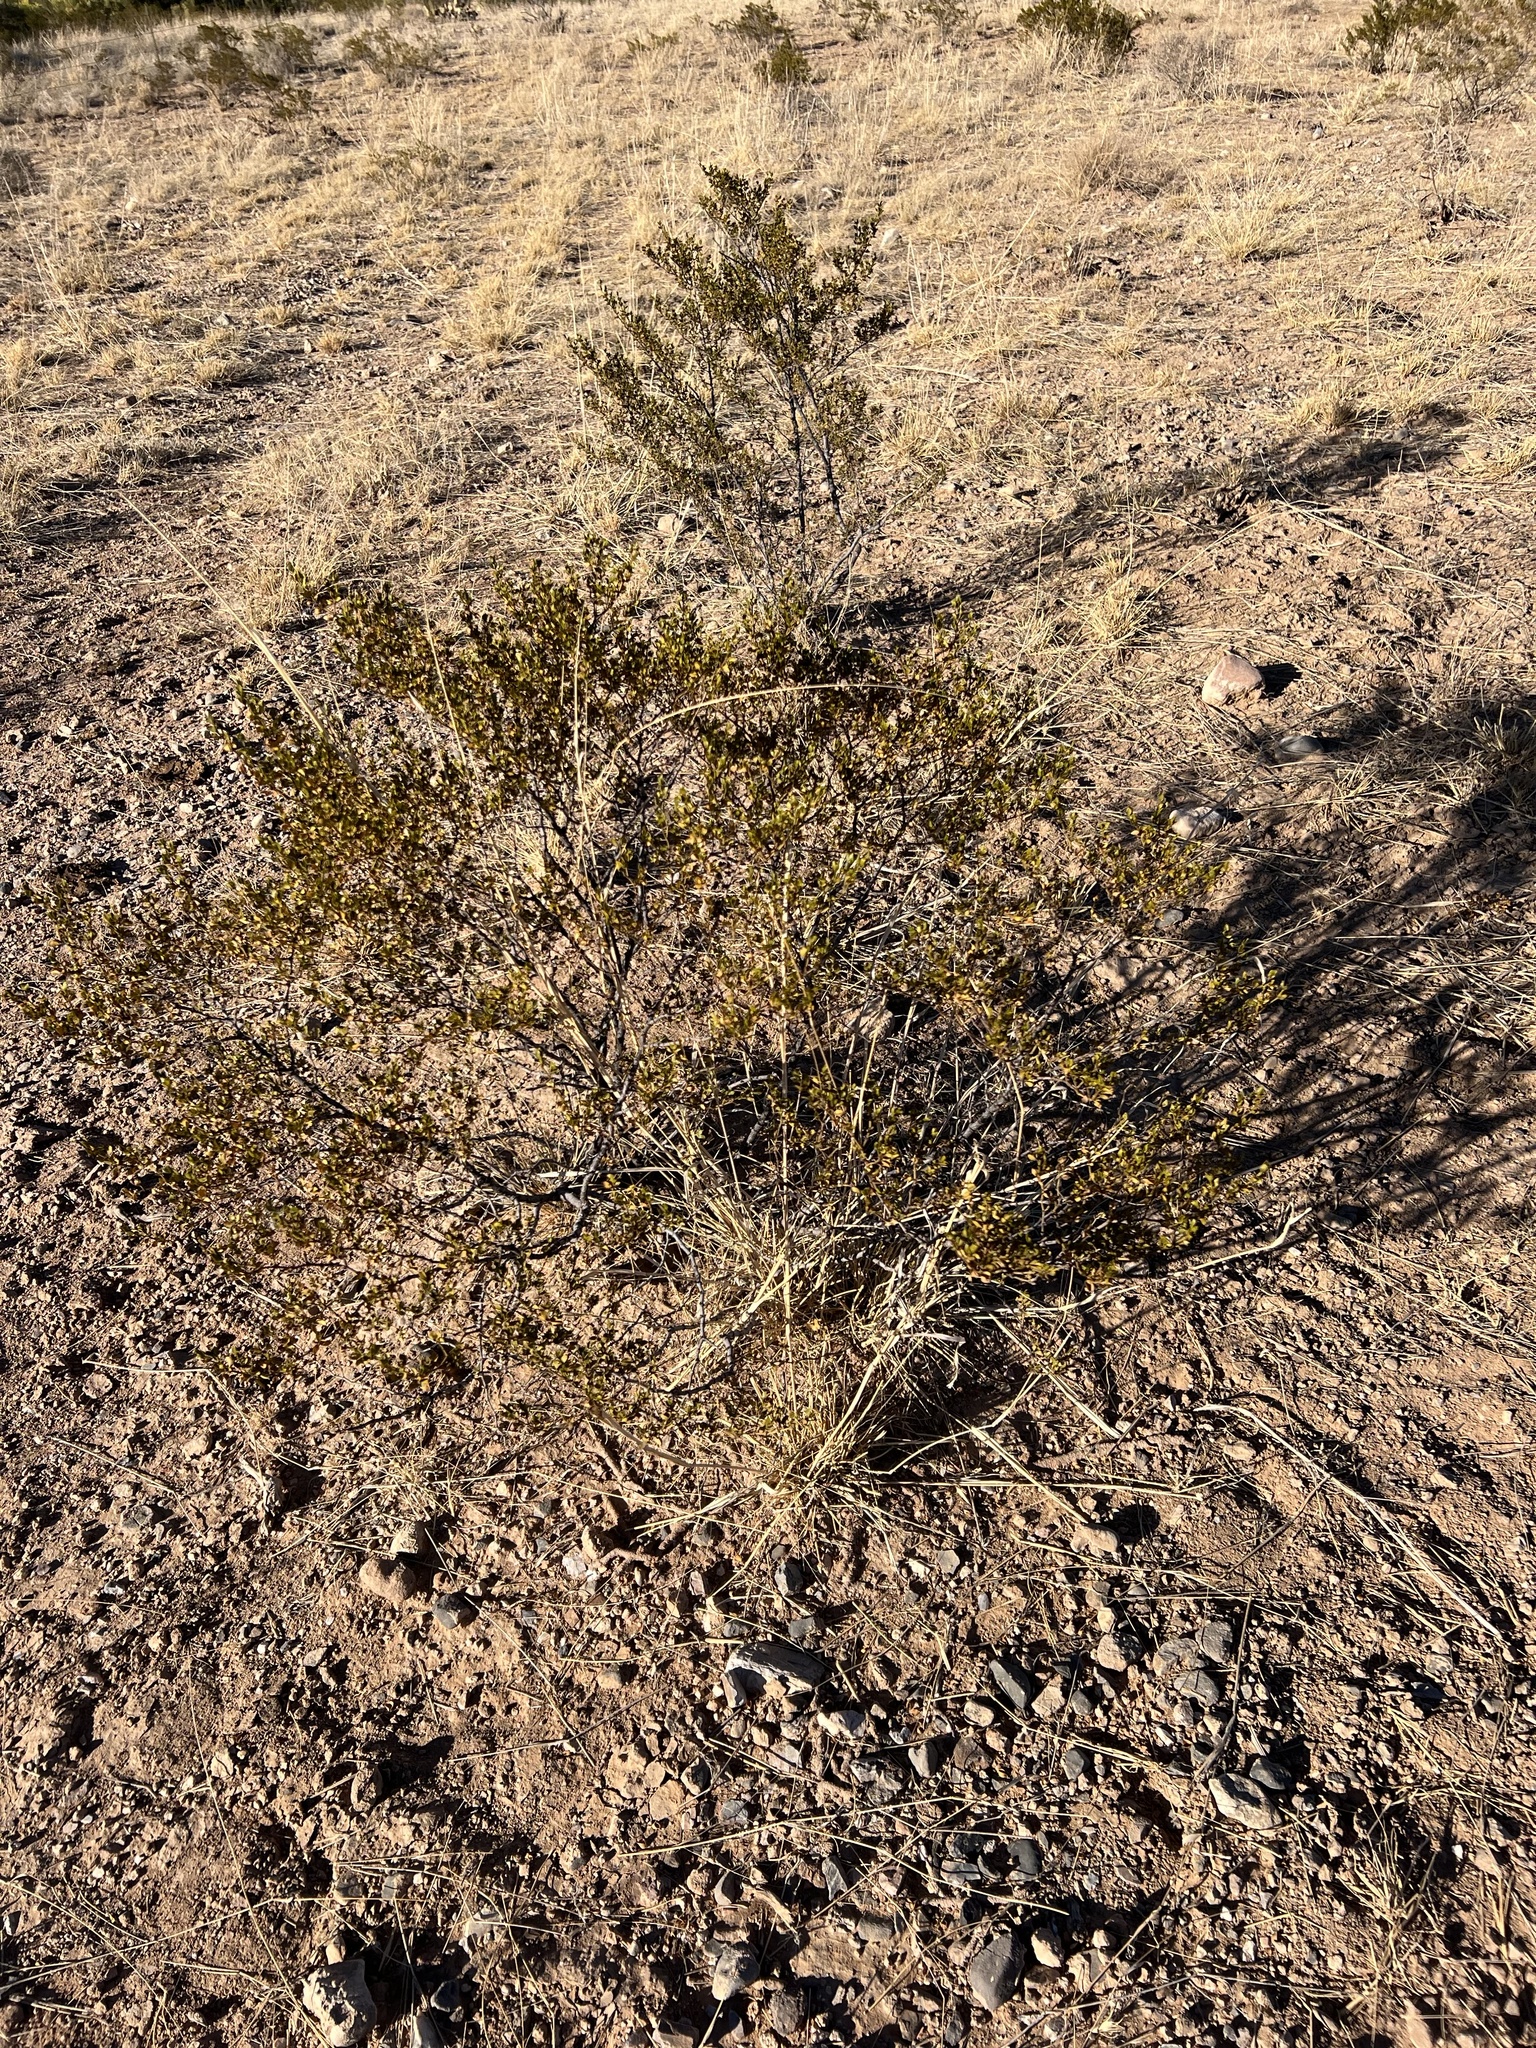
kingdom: Plantae
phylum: Tracheophyta
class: Magnoliopsida
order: Zygophyllales
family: Zygophyllaceae
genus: Larrea
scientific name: Larrea tridentata
